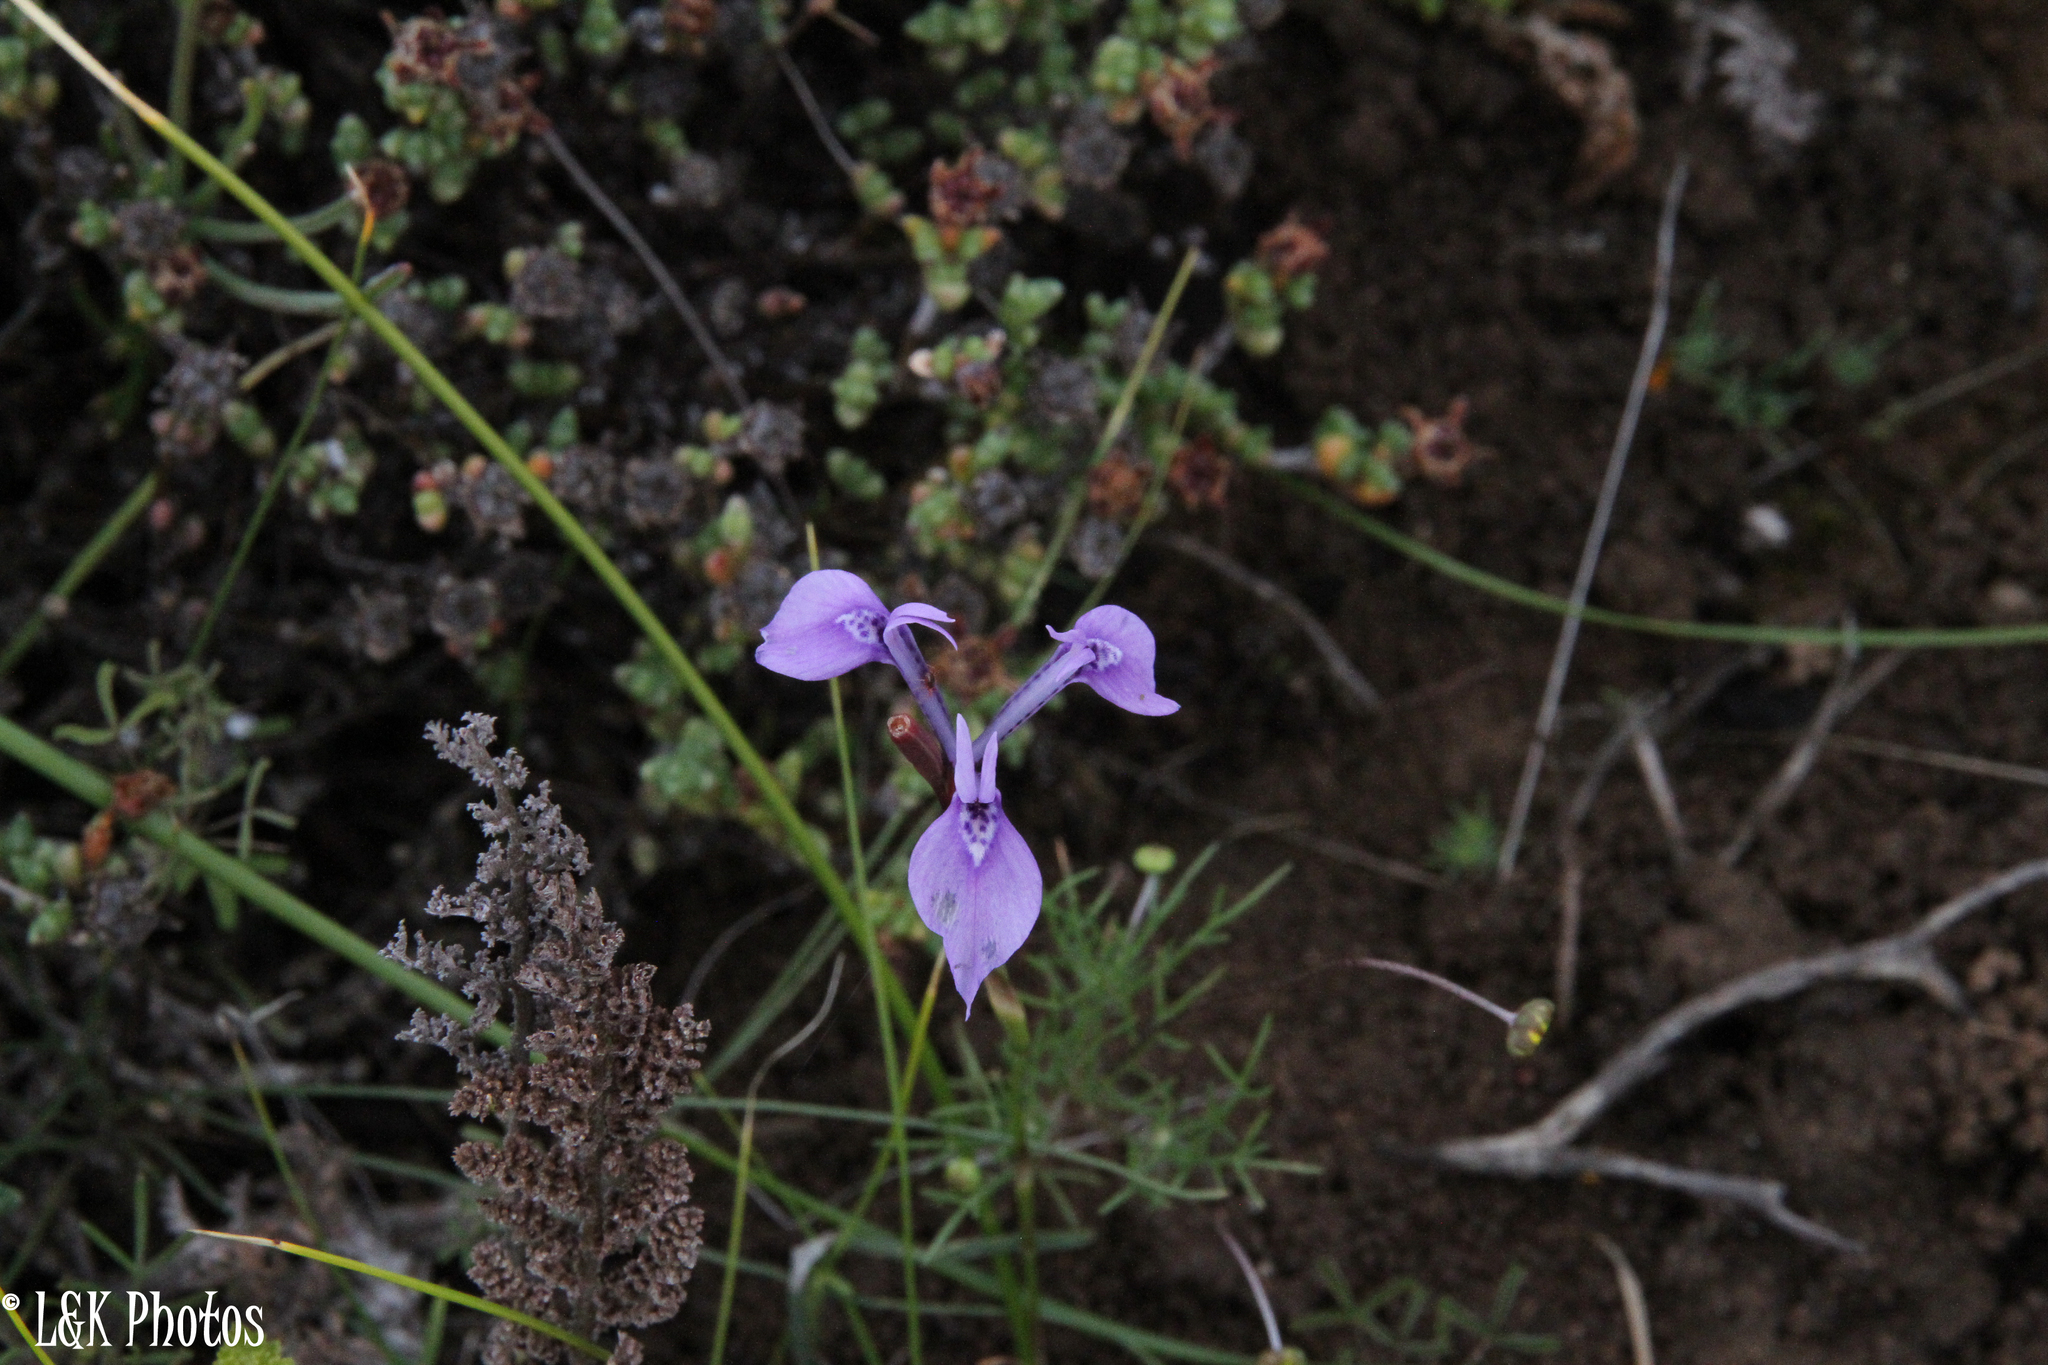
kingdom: Plantae
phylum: Tracheophyta
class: Liliopsida
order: Asparagales
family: Iridaceae
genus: Moraea
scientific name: Moraea tripetala
